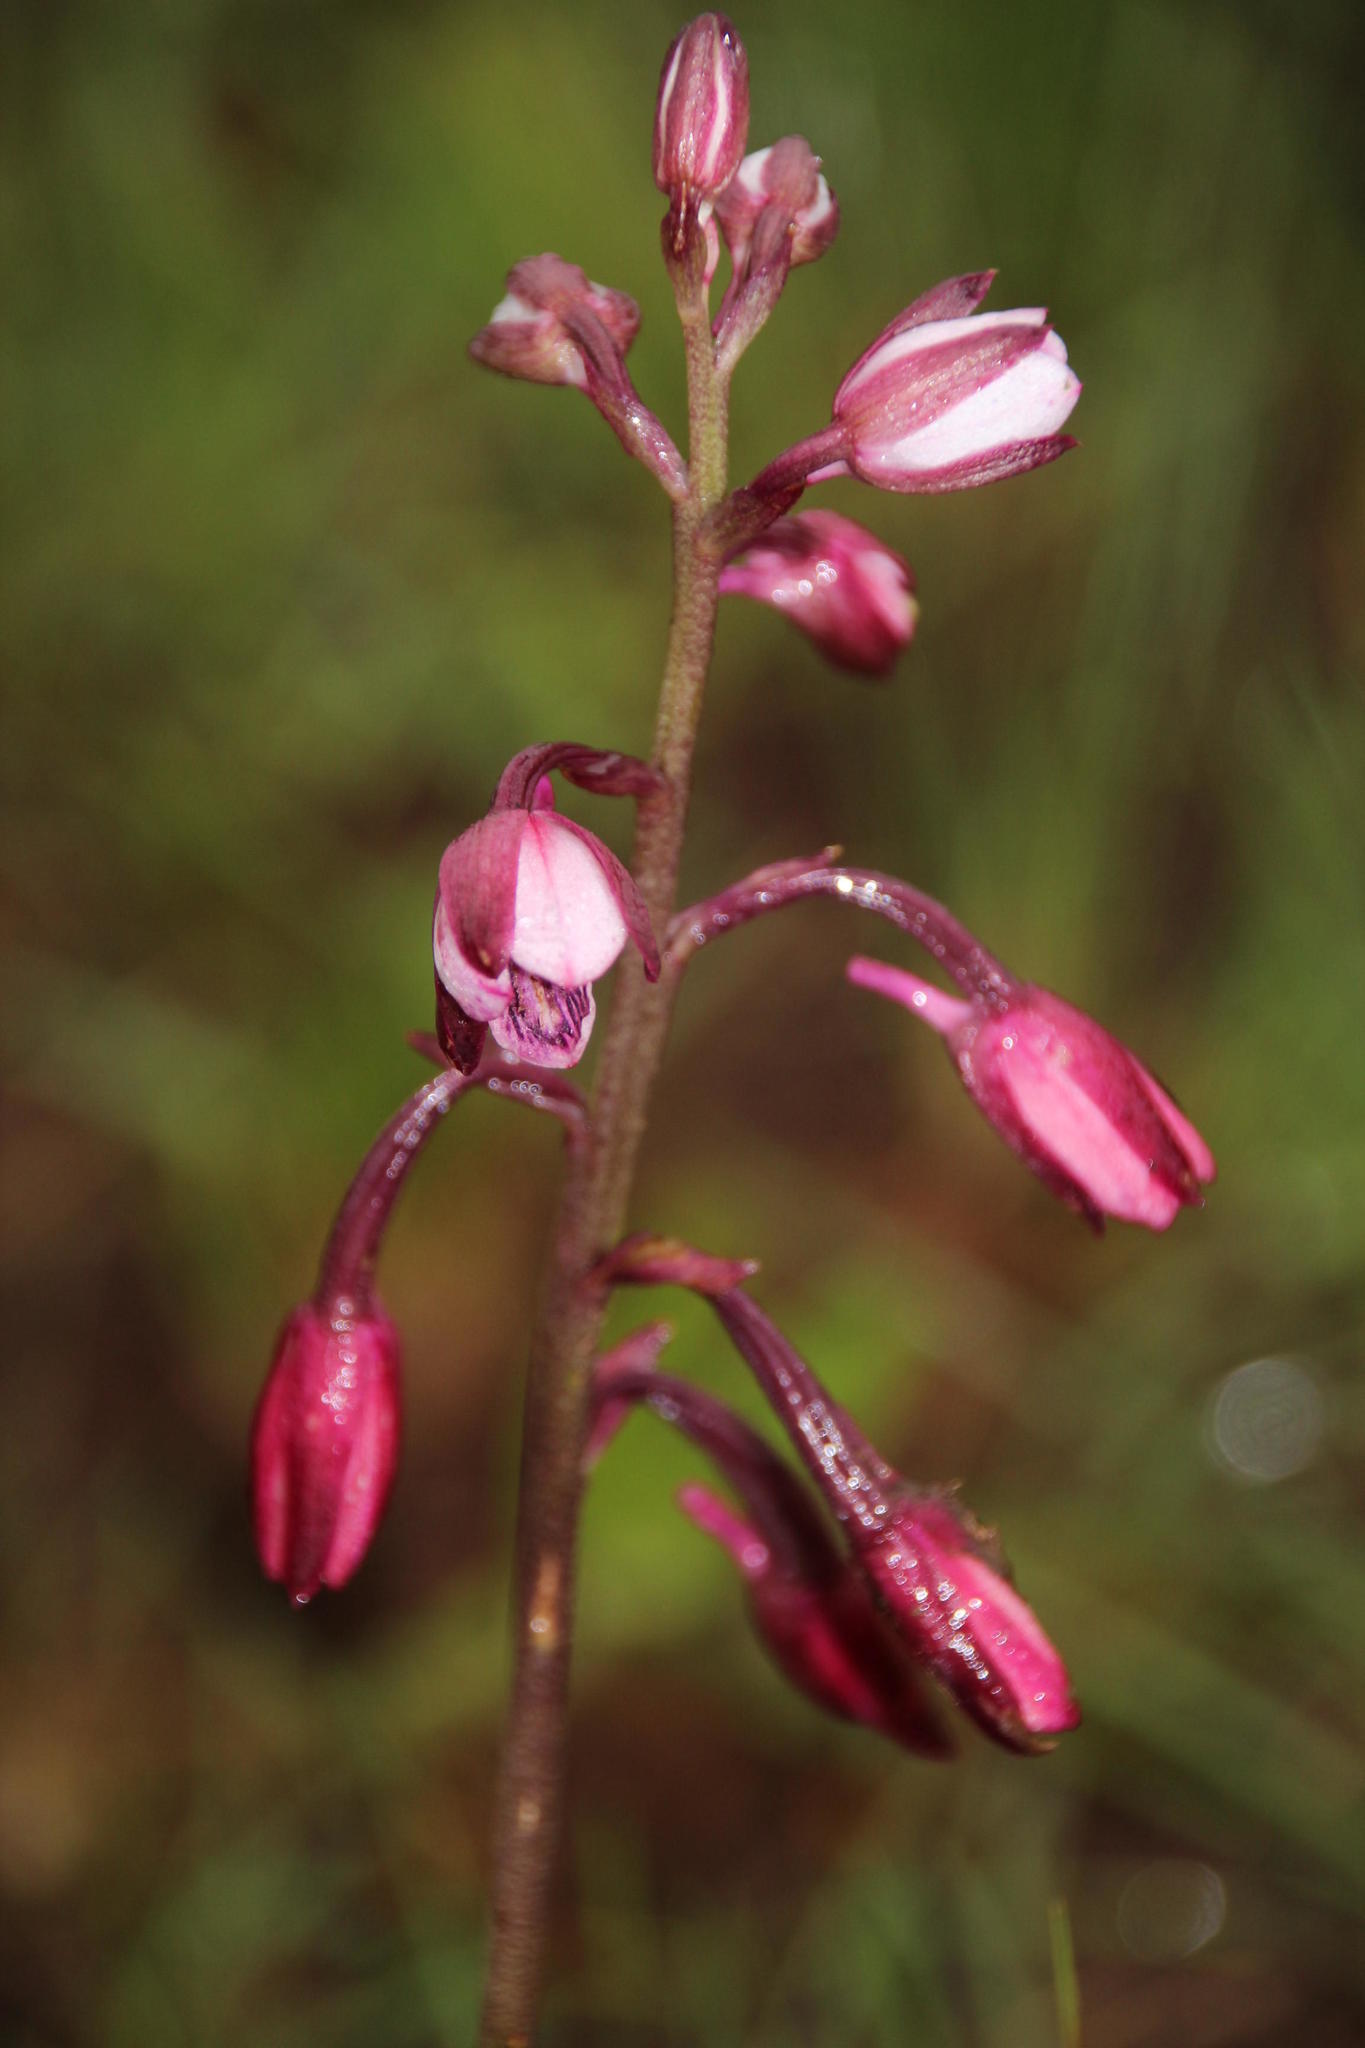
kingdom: Plantae
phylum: Tracheophyta
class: Liliopsida
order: Asparagales
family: Orchidaceae
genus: Eulophia
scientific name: Eulophia hians
